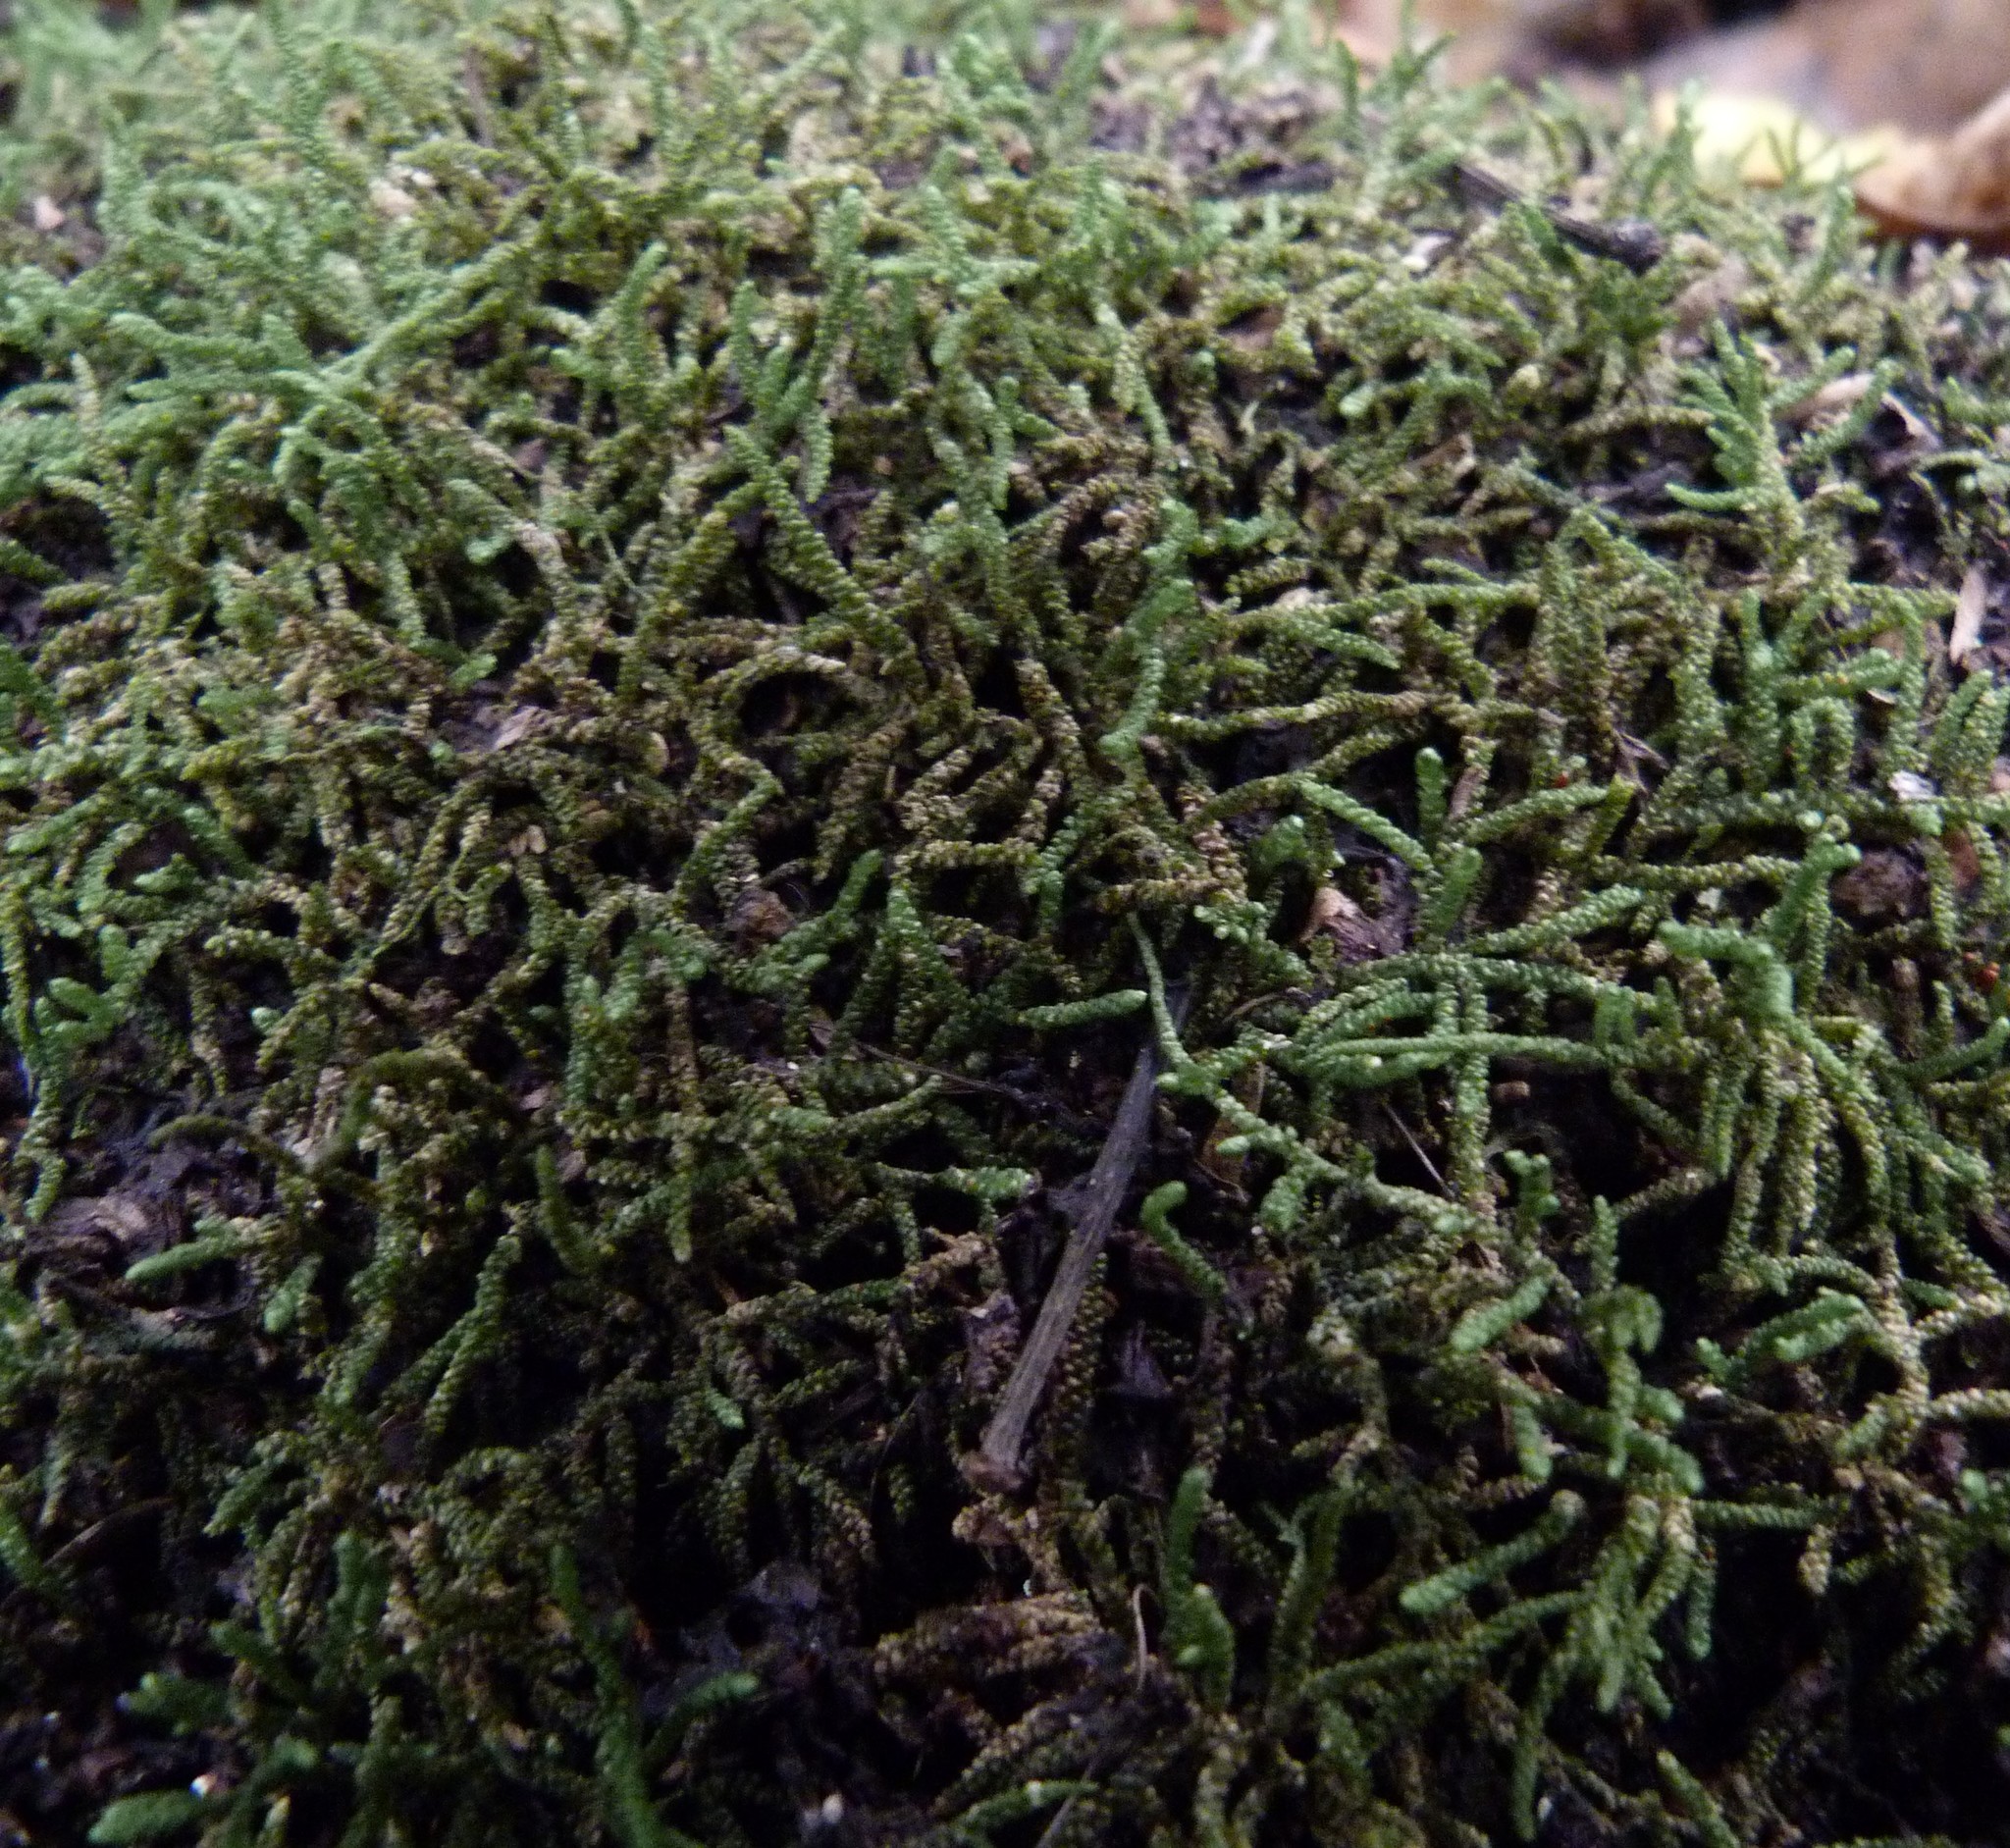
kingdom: Plantae
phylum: Bryophyta
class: Bryopsida
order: Hypnales
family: Lembophyllaceae
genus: Lembophyllum
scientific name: Lembophyllum clandestinum
